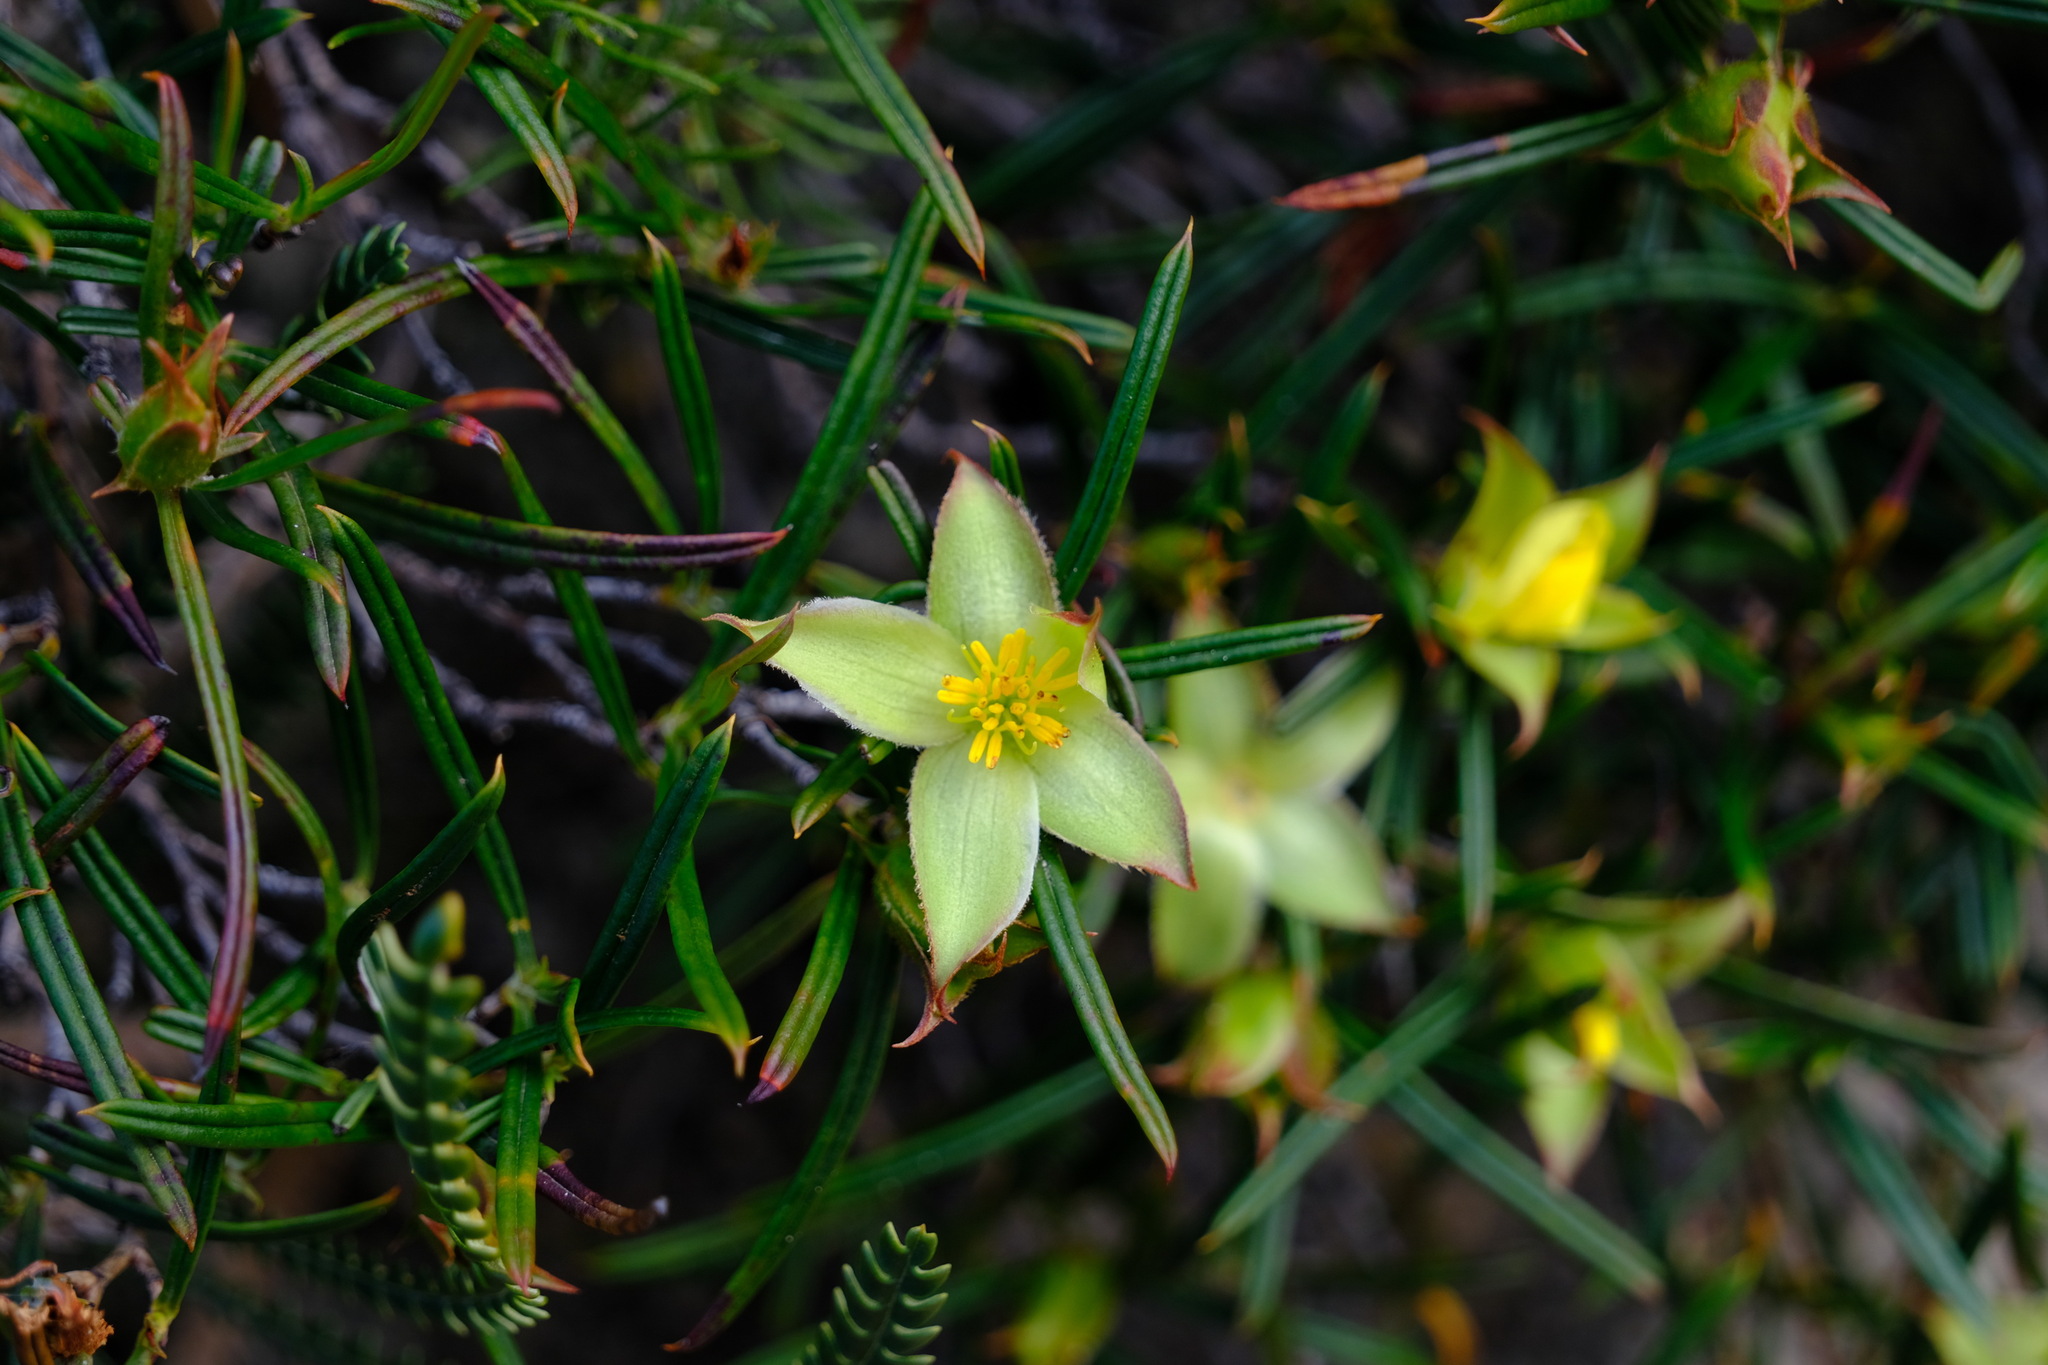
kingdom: Plantae
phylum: Tracheophyta
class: Magnoliopsida
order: Dilleniales
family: Dilleniaceae
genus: Hibbertia
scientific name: Hibbertia striata
